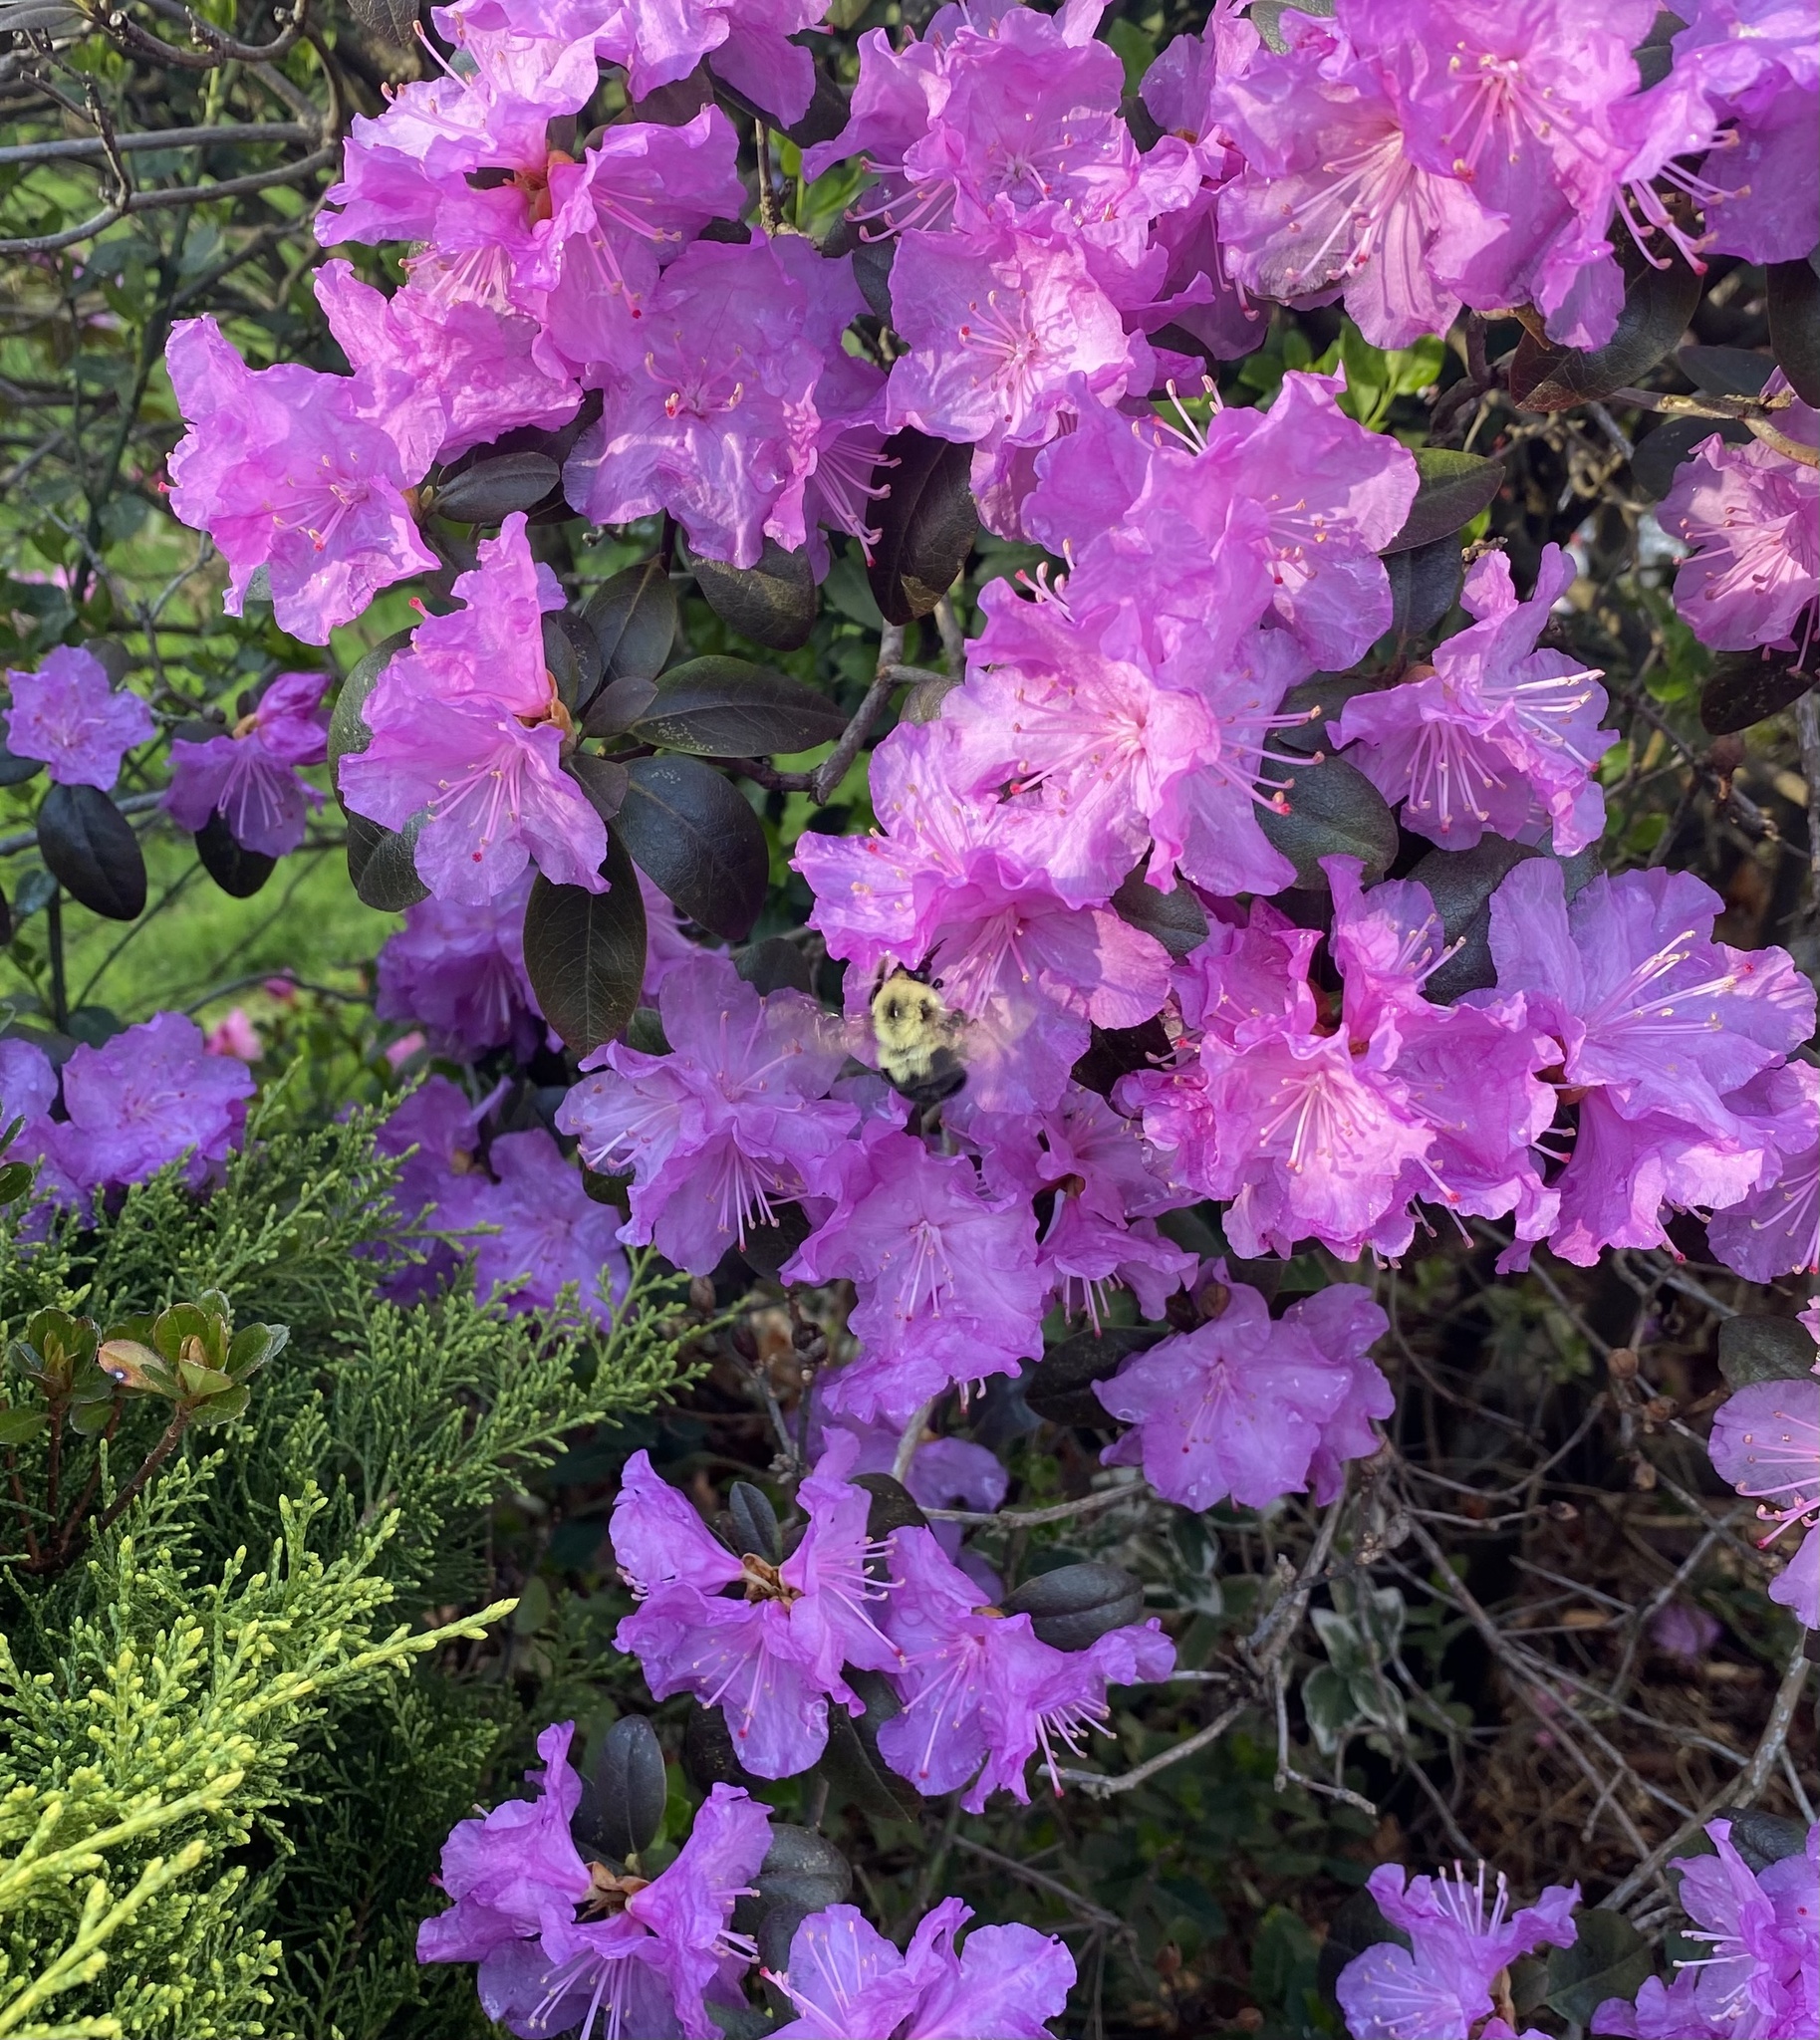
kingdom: Animalia
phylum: Arthropoda
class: Insecta
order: Hymenoptera
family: Apidae
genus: Bombus
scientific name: Bombus bimaculatus
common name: Two-spotted bumble bee
